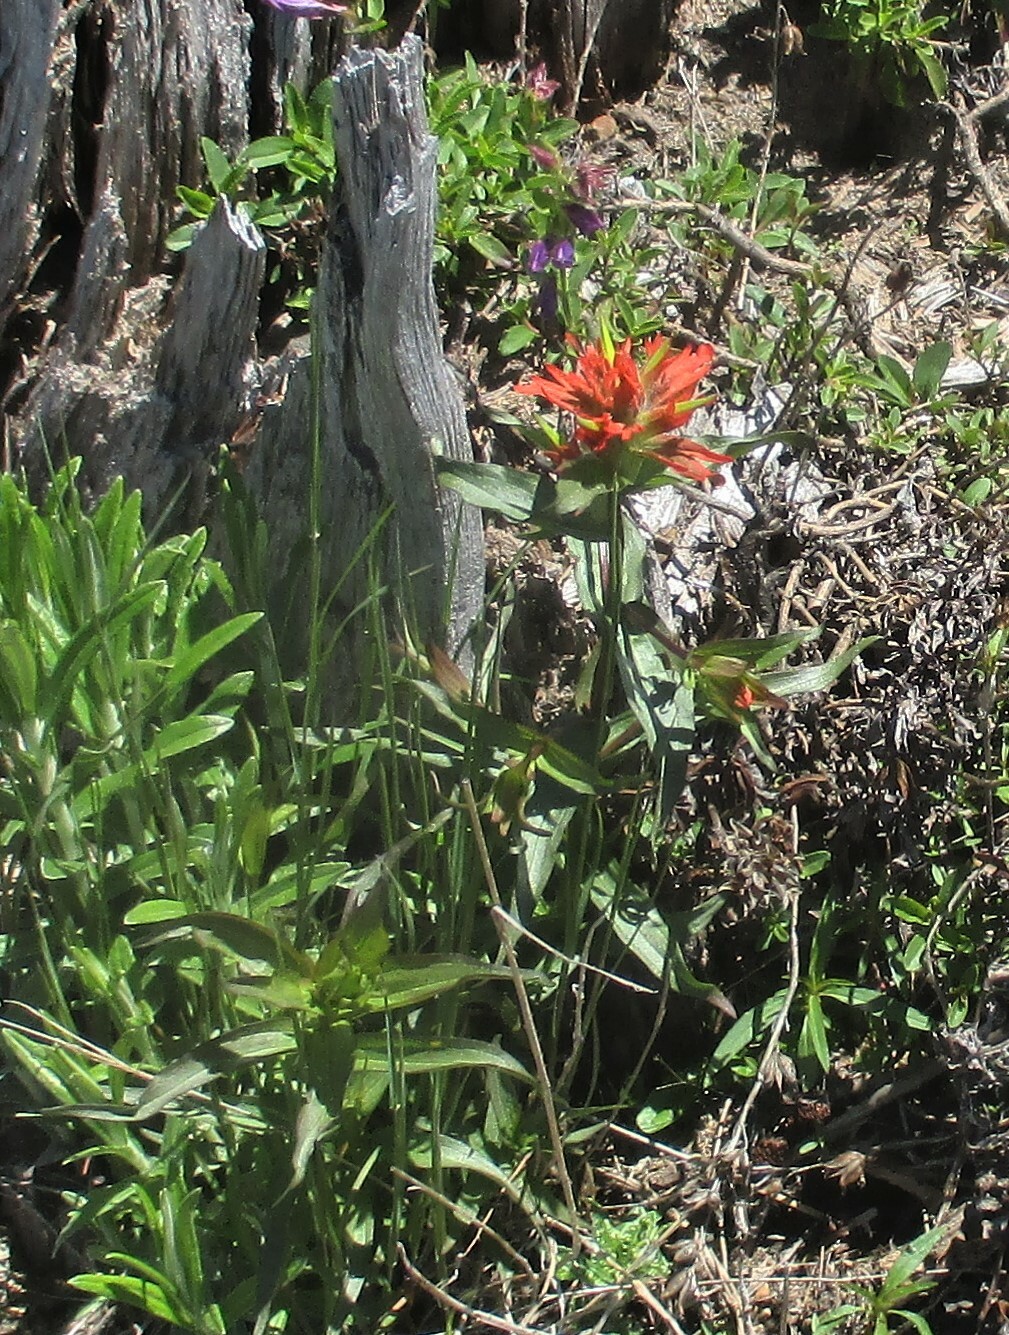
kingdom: Plantae
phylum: Tracheophyta
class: Magnoliopsida
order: Lamiales
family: Orobanchaceae
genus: Castilleja
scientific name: Castilleja miniata
